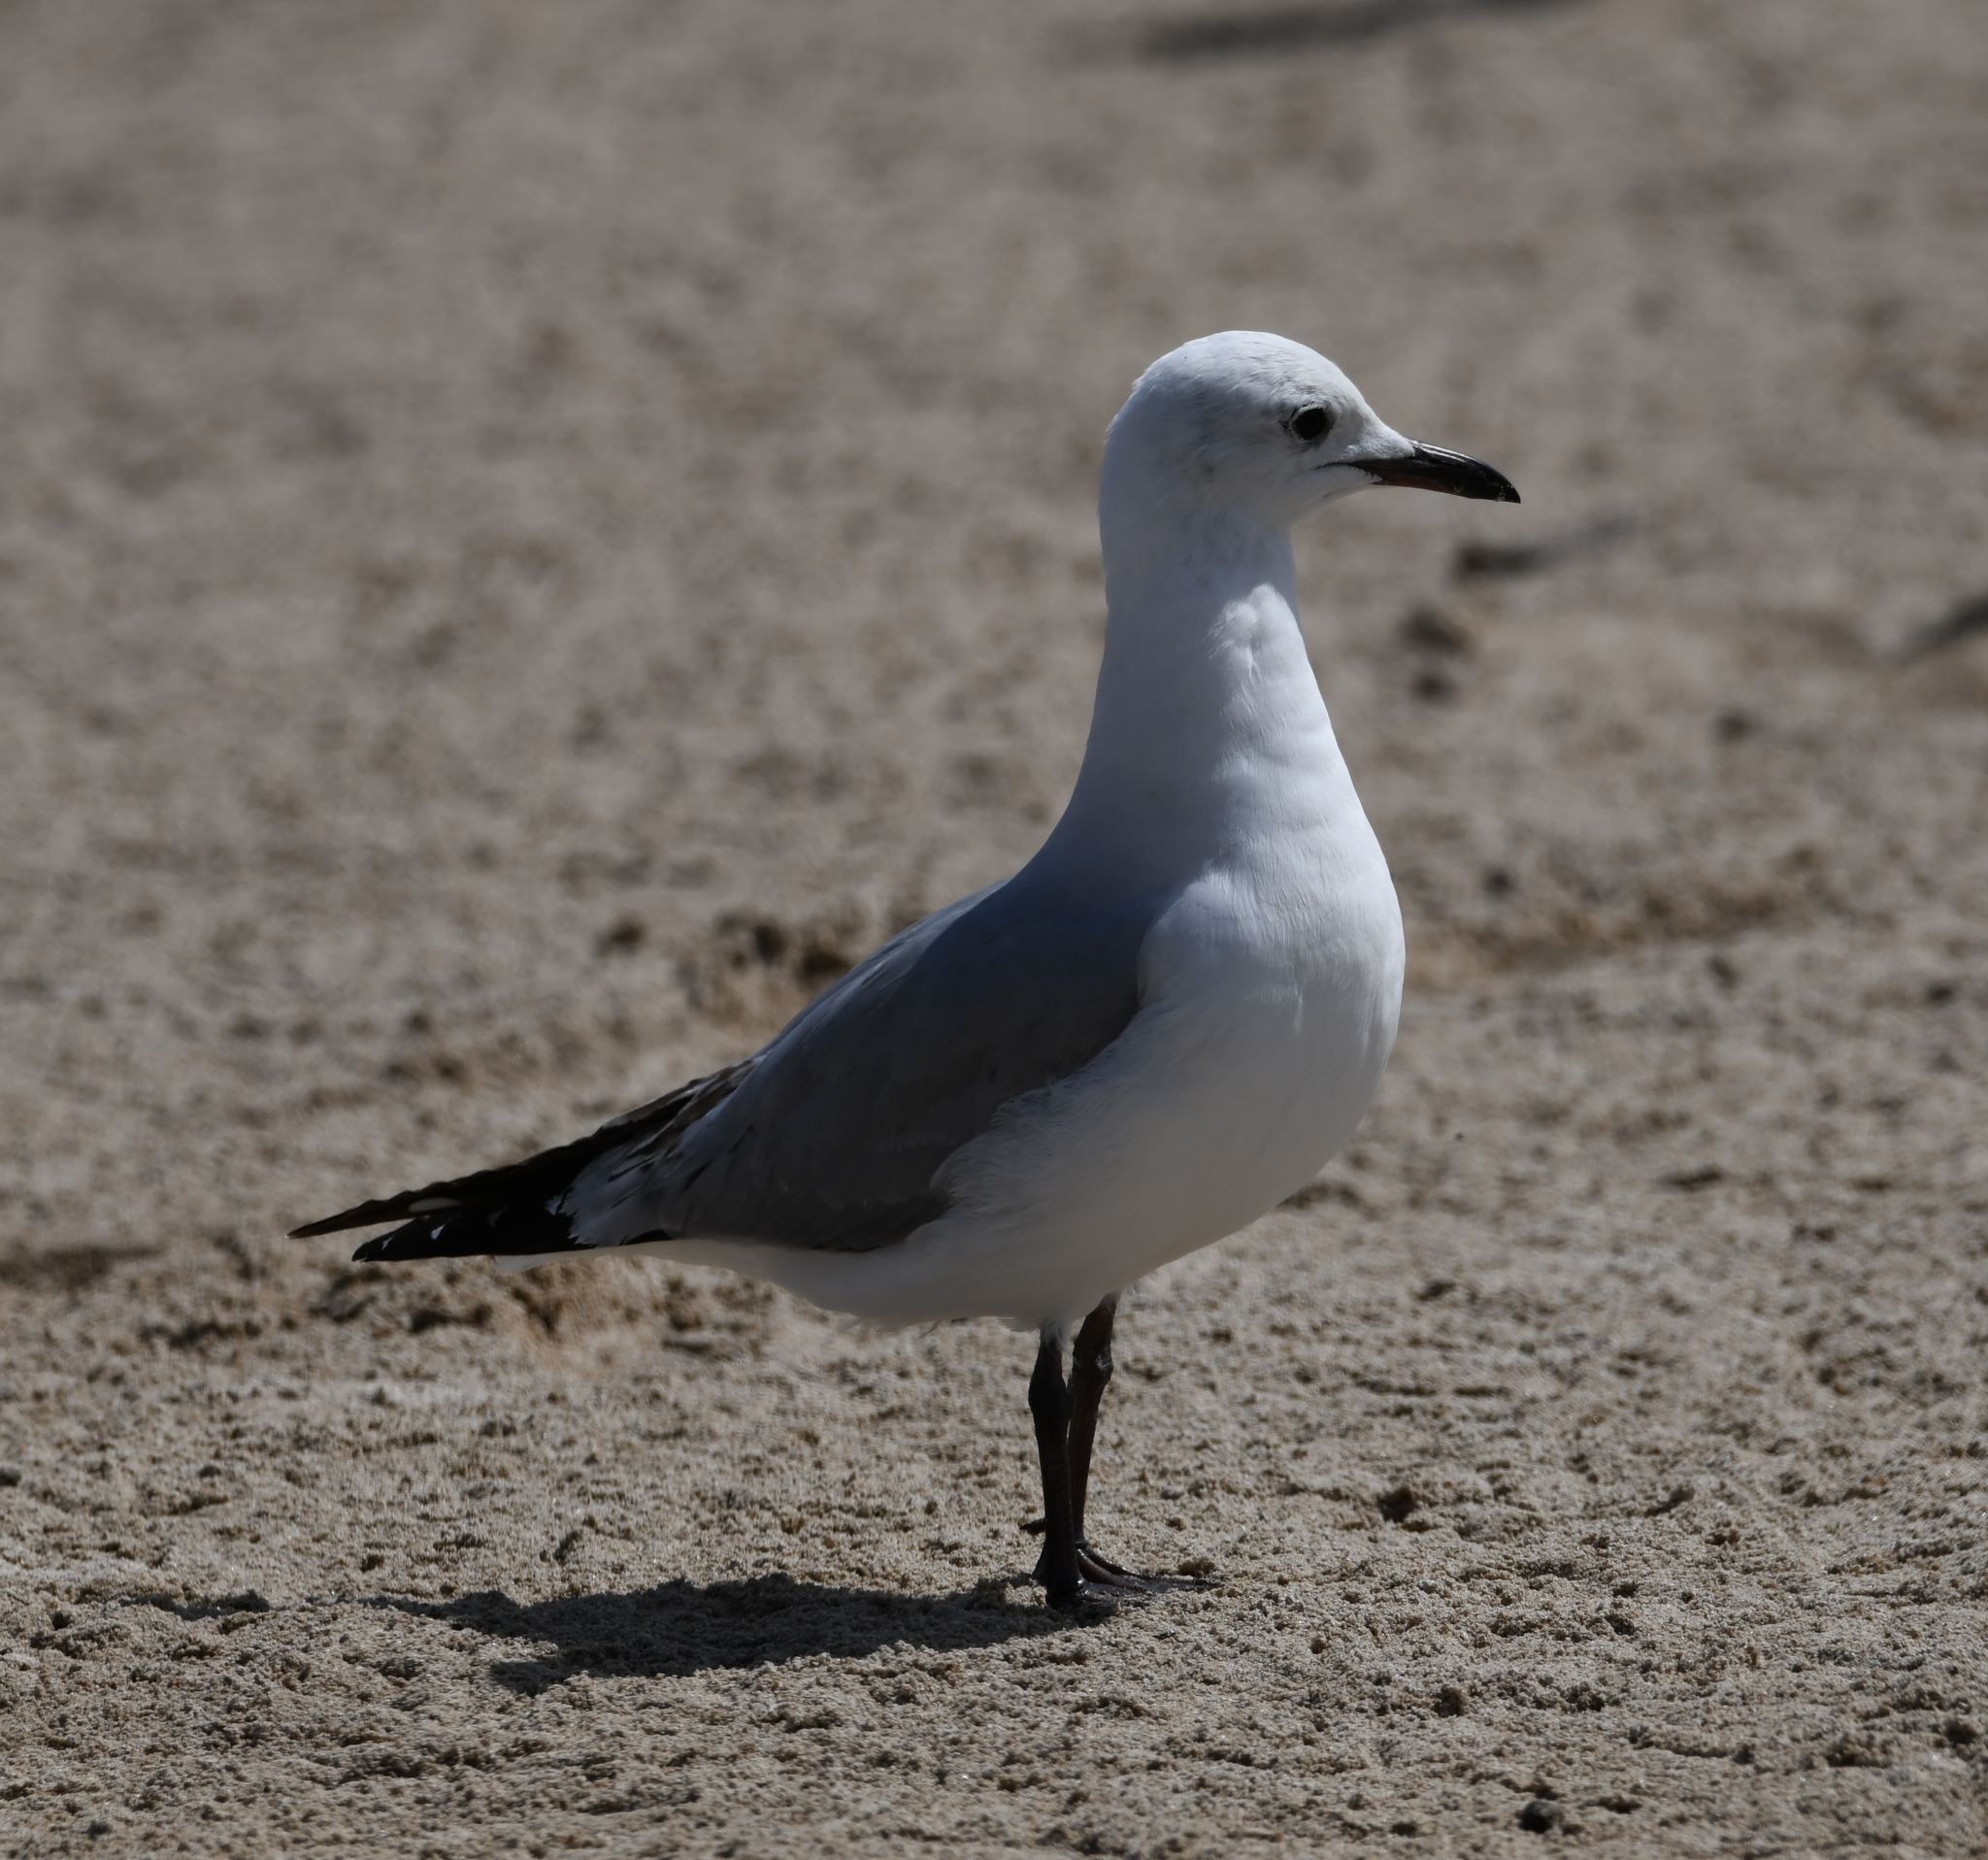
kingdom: Animalia
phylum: Chordata
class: Aves
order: Charadriiformes
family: Laridae
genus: Chroicocephalus
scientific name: Chroicocephalus hartlaubii
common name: Hartlaub's gull
